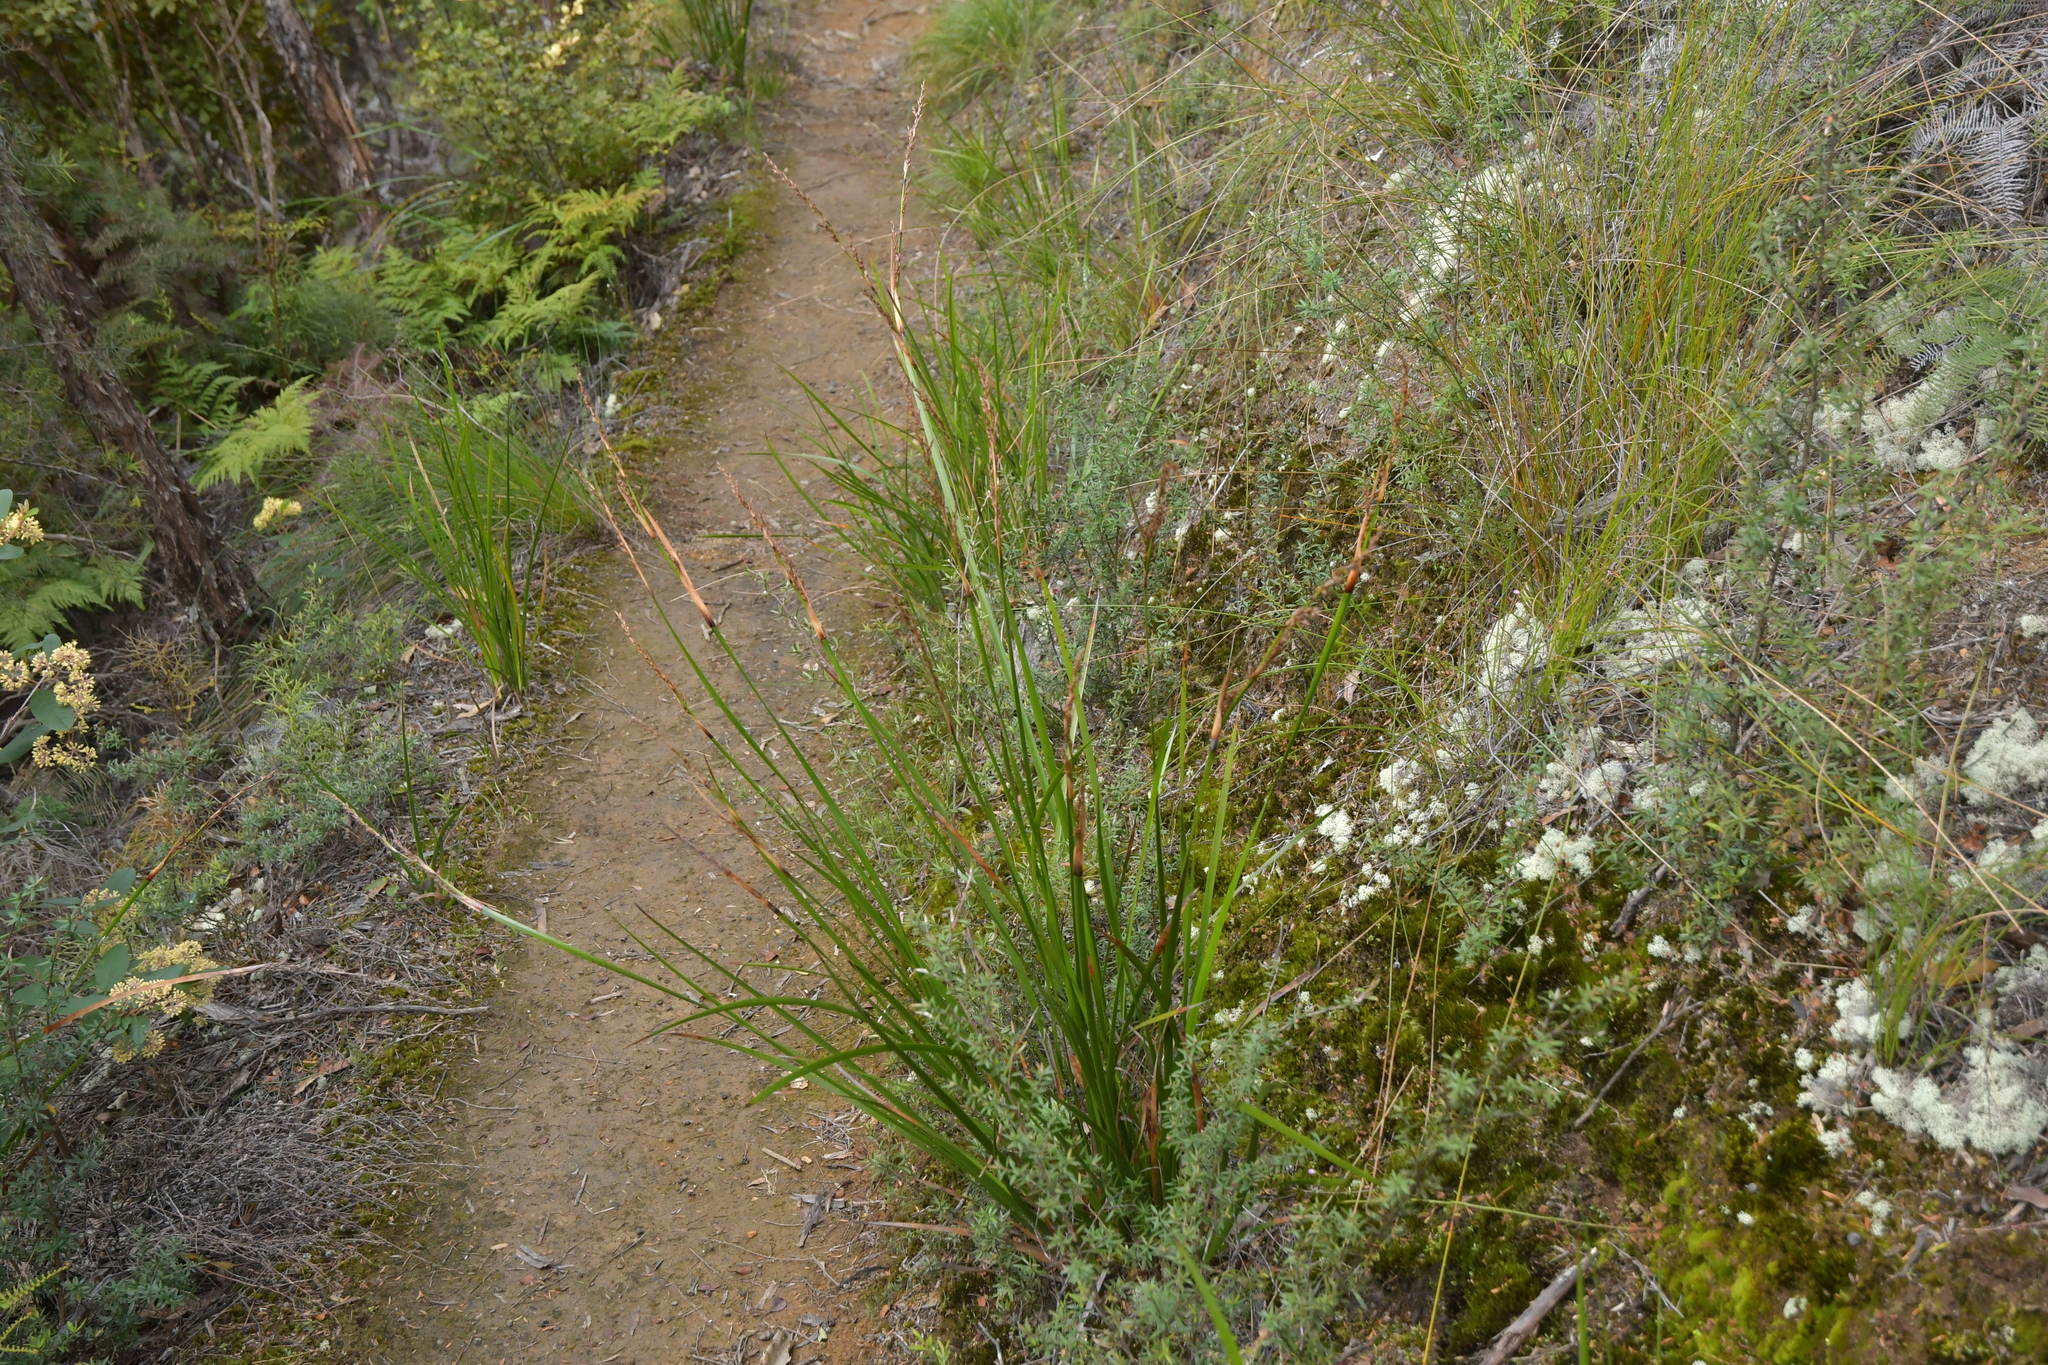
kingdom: Plantae
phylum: Tracheophyta
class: Liliopsida
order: Poales
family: Cyperaceae
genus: Lepidosperma
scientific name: Lepidosperma laterale
